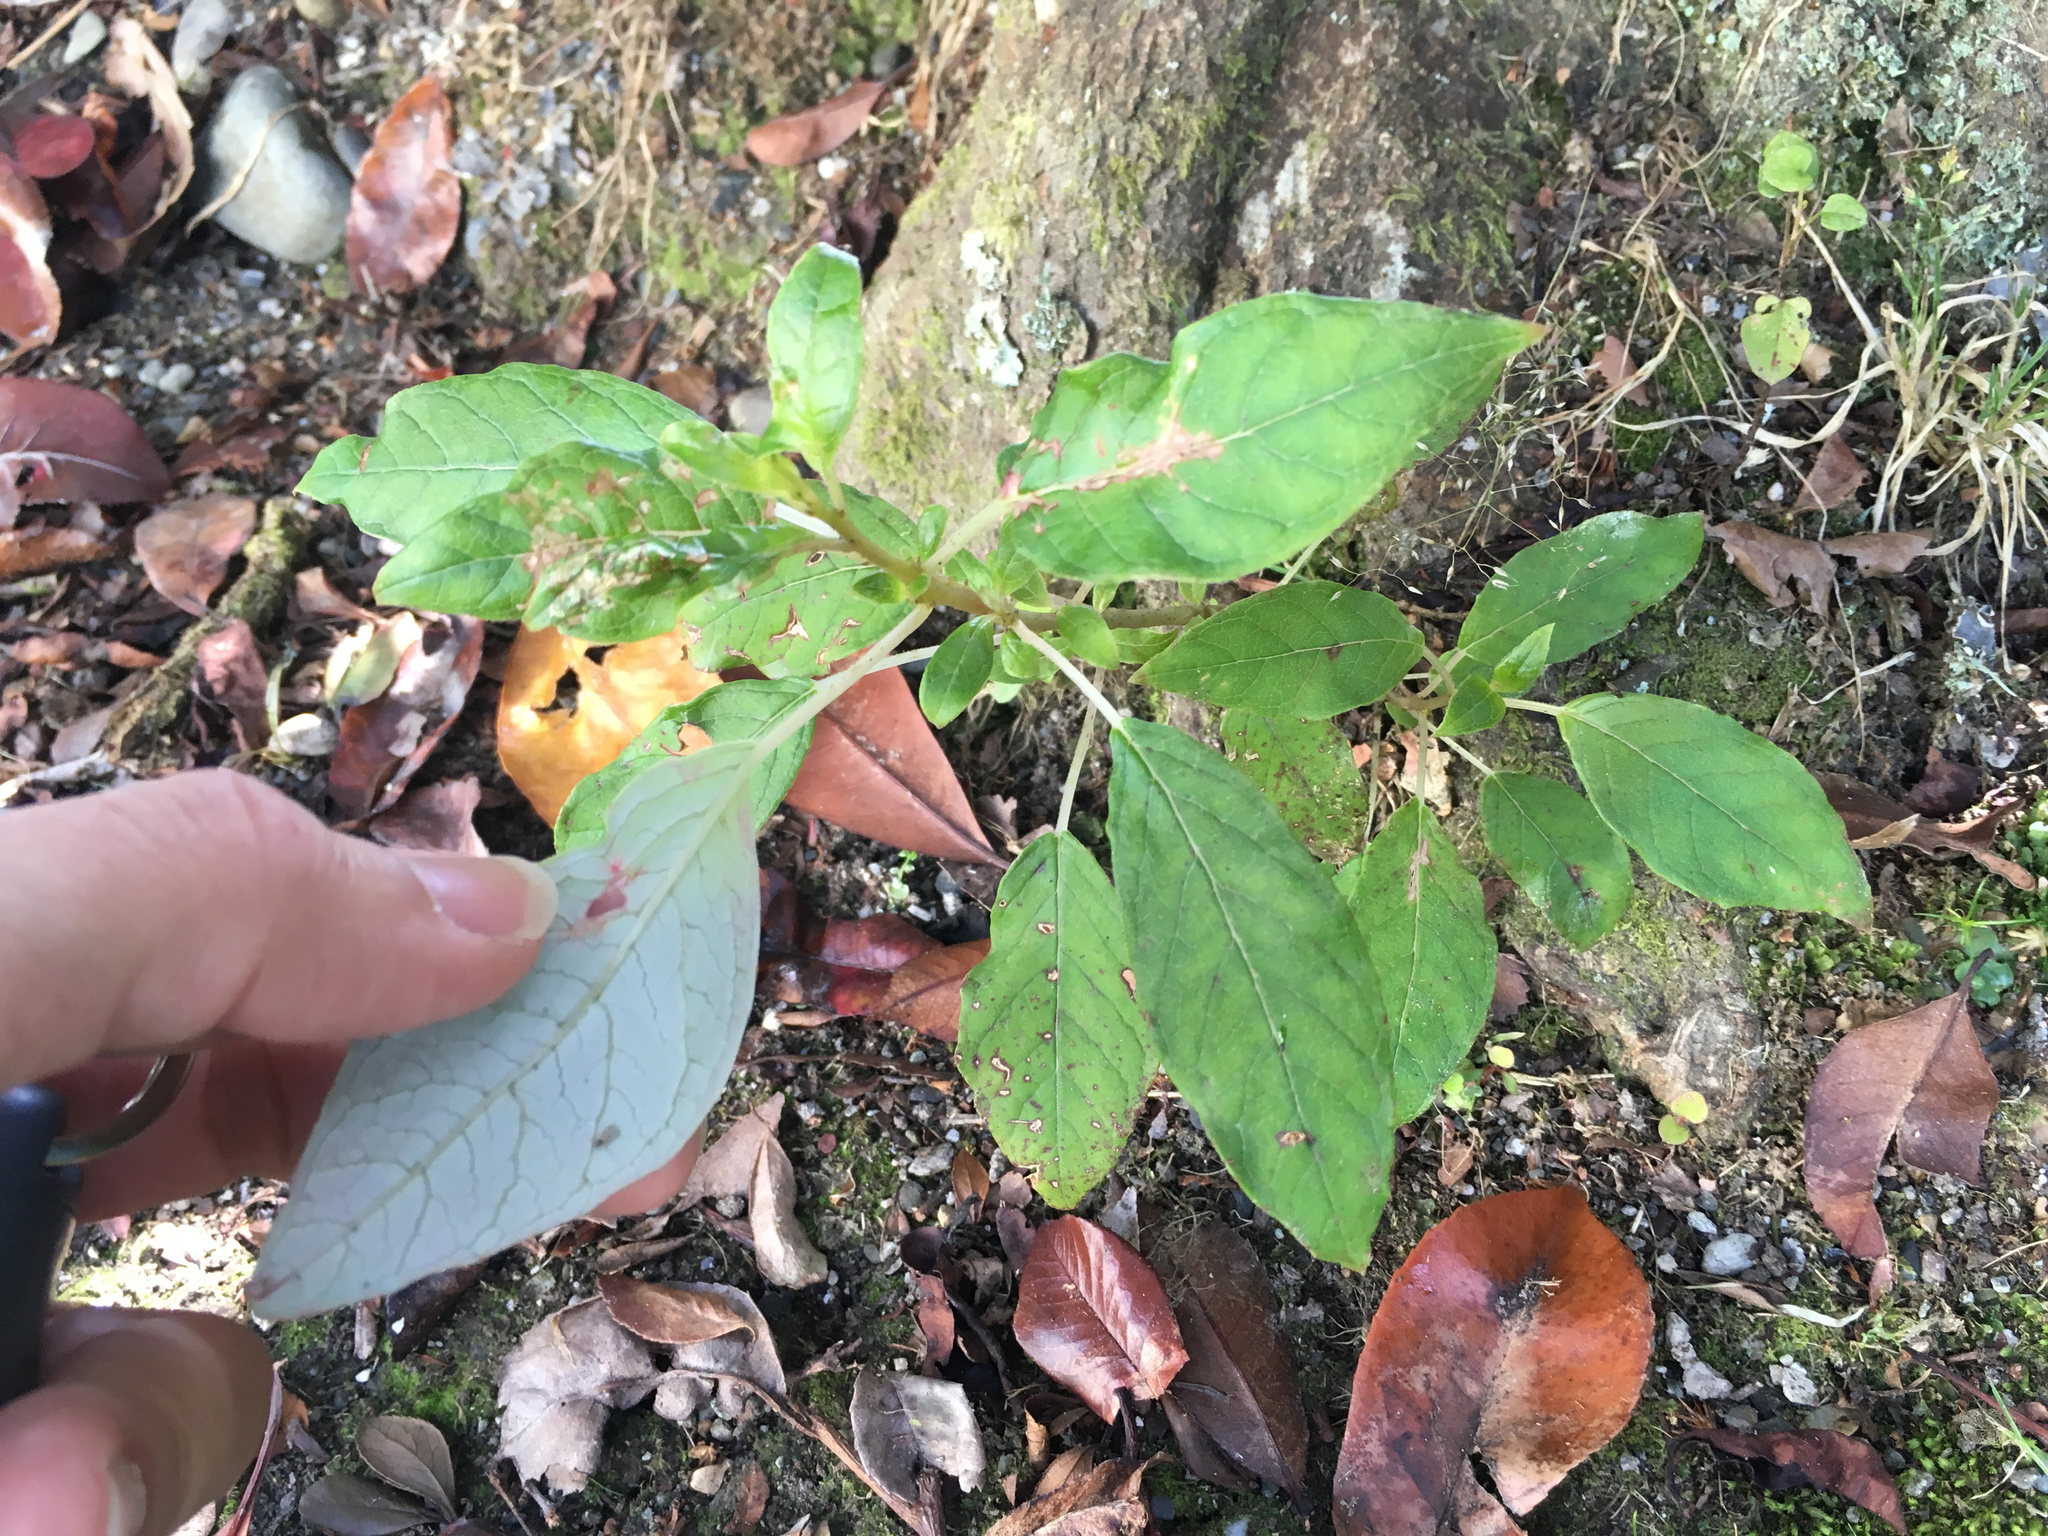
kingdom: Plantae
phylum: Tracheophyta
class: Magnoliopsida
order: Myrtales
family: Onagraceae
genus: Fuchsia
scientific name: Fuchsia excorticata
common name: Tree fuchsia
